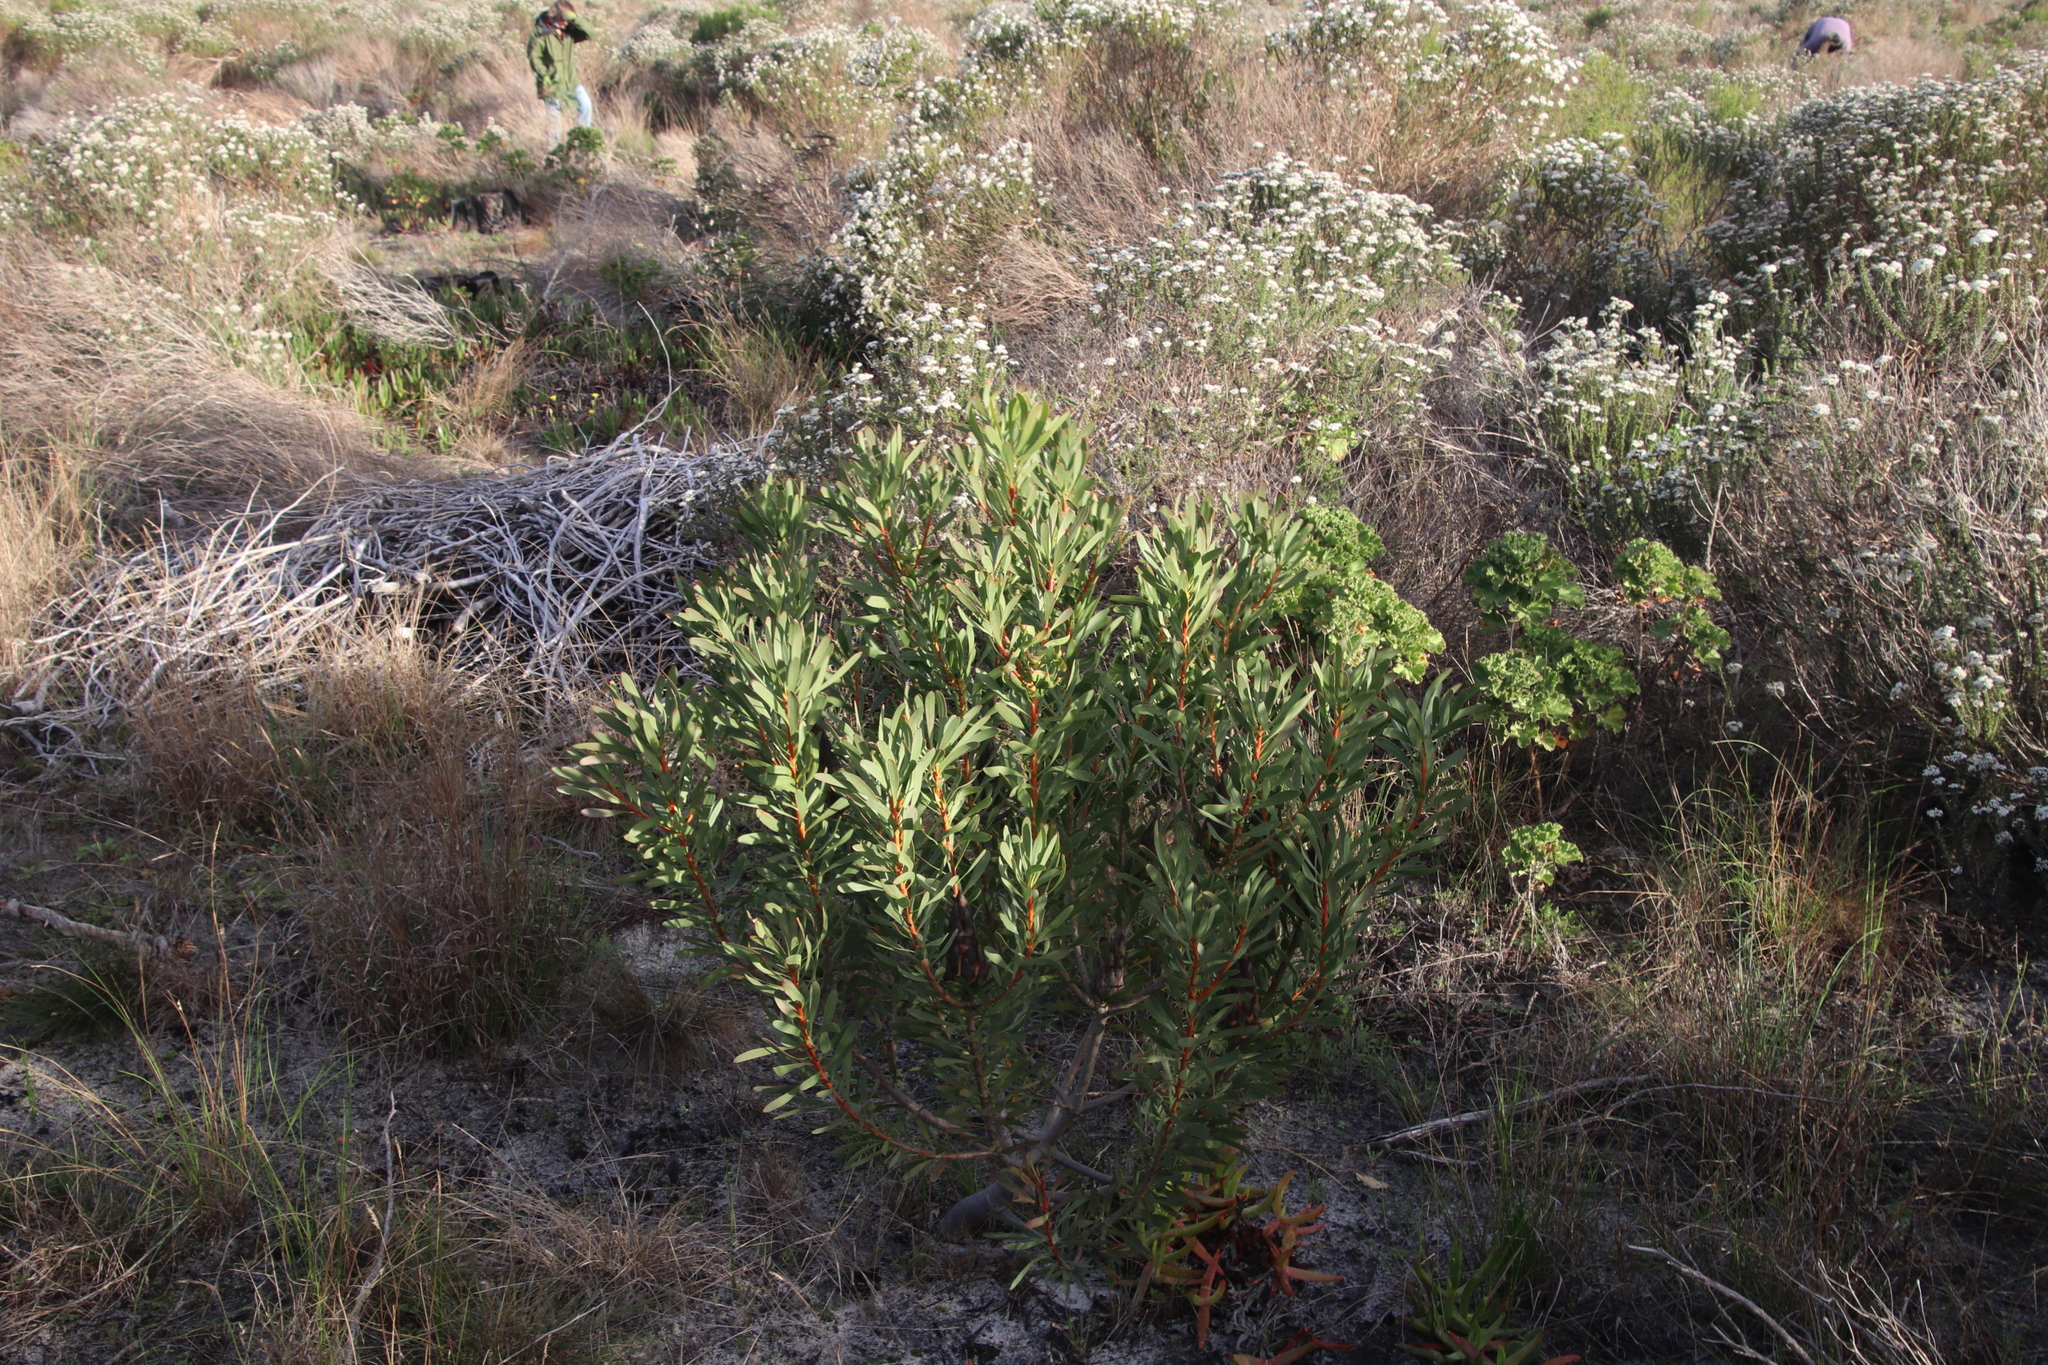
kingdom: Plantae
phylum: Tracheophyta
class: Magnoliopsida
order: Proteales
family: Proteaceae
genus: Protea
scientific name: Protea repens
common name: Sugarbush
